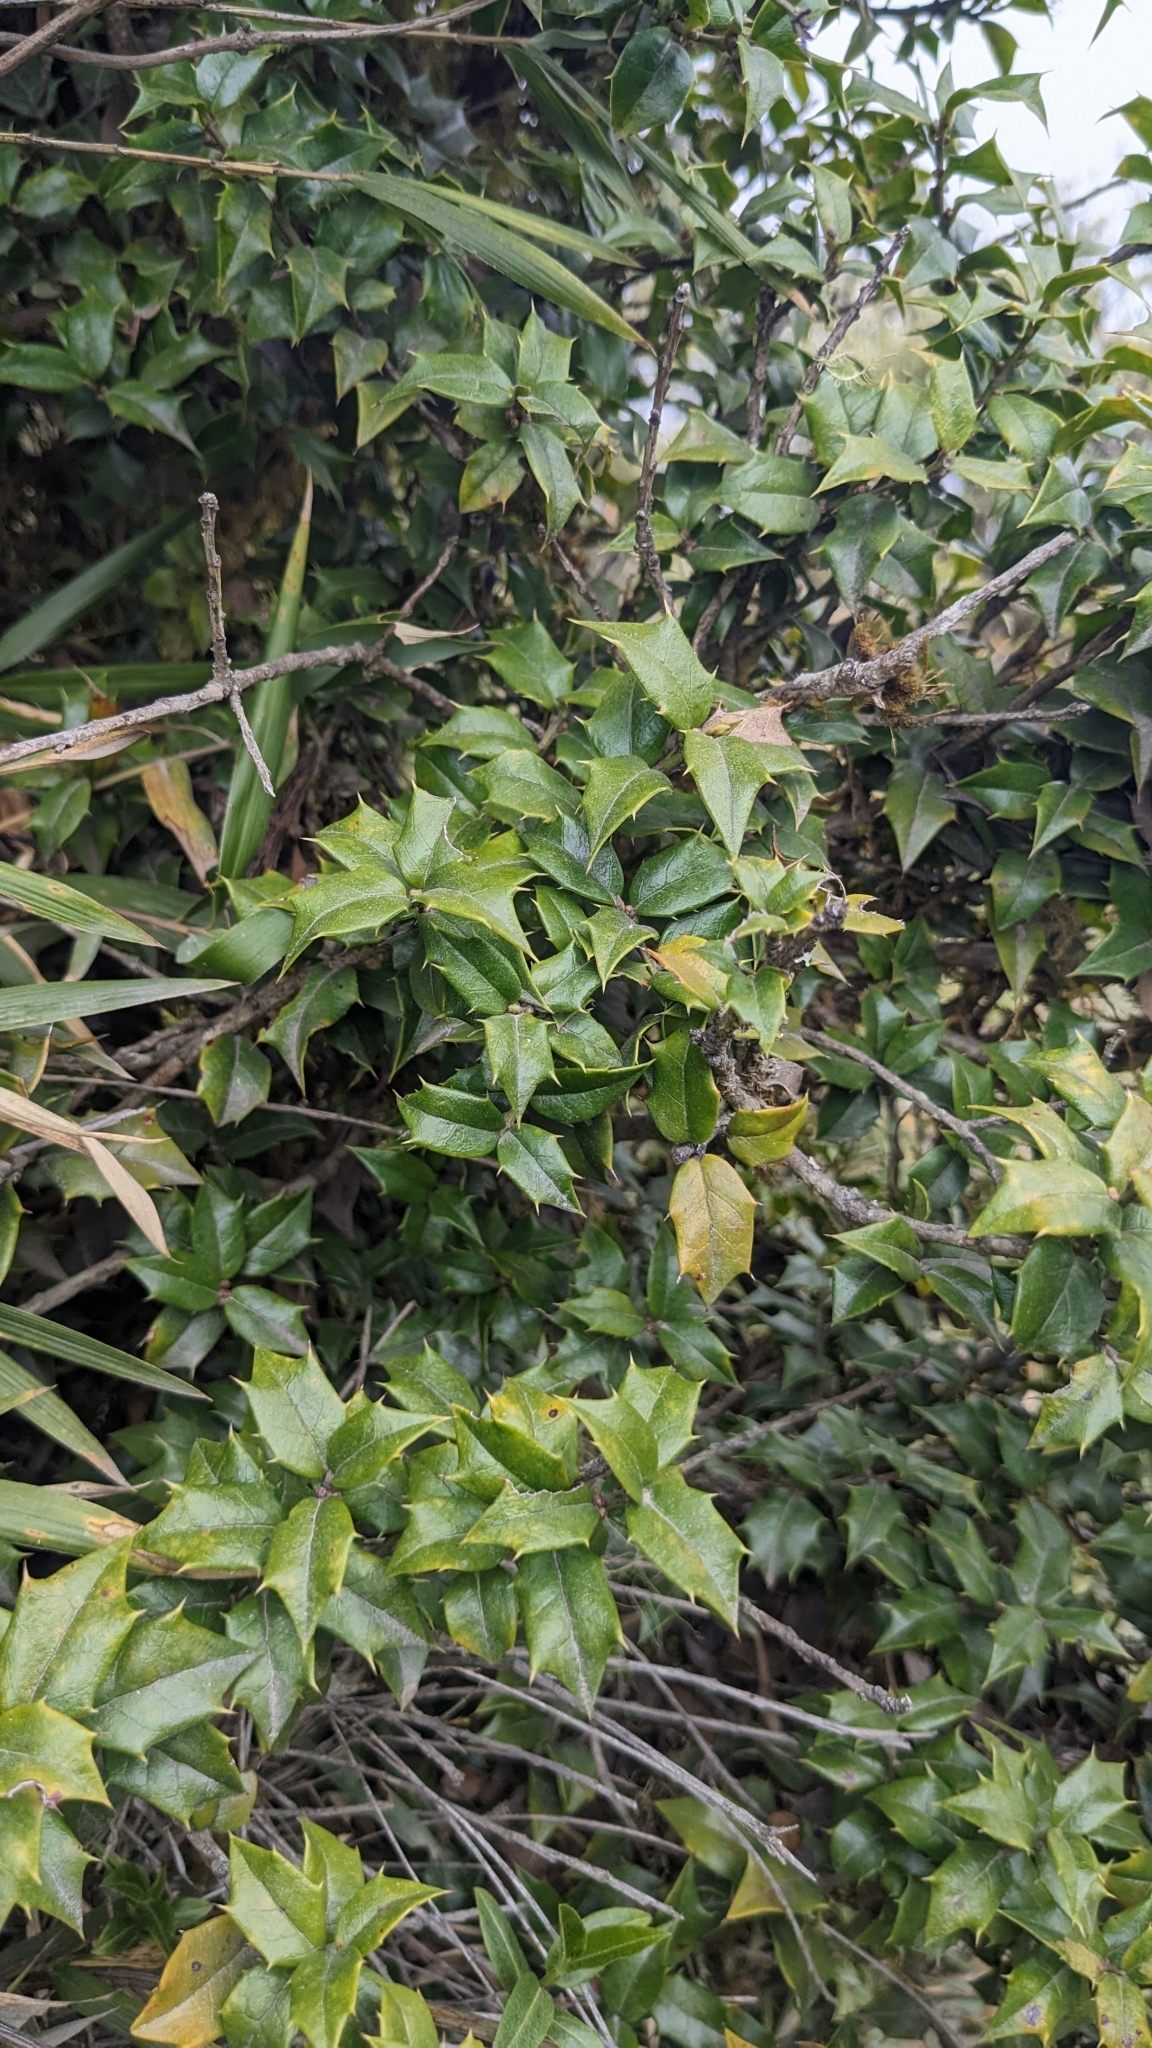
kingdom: Plantae
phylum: Tracheophyta
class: Magnoliopsida
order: Aquifoliales
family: Aquifoliaceae
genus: Ilex
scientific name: Ilex bioritsensis
